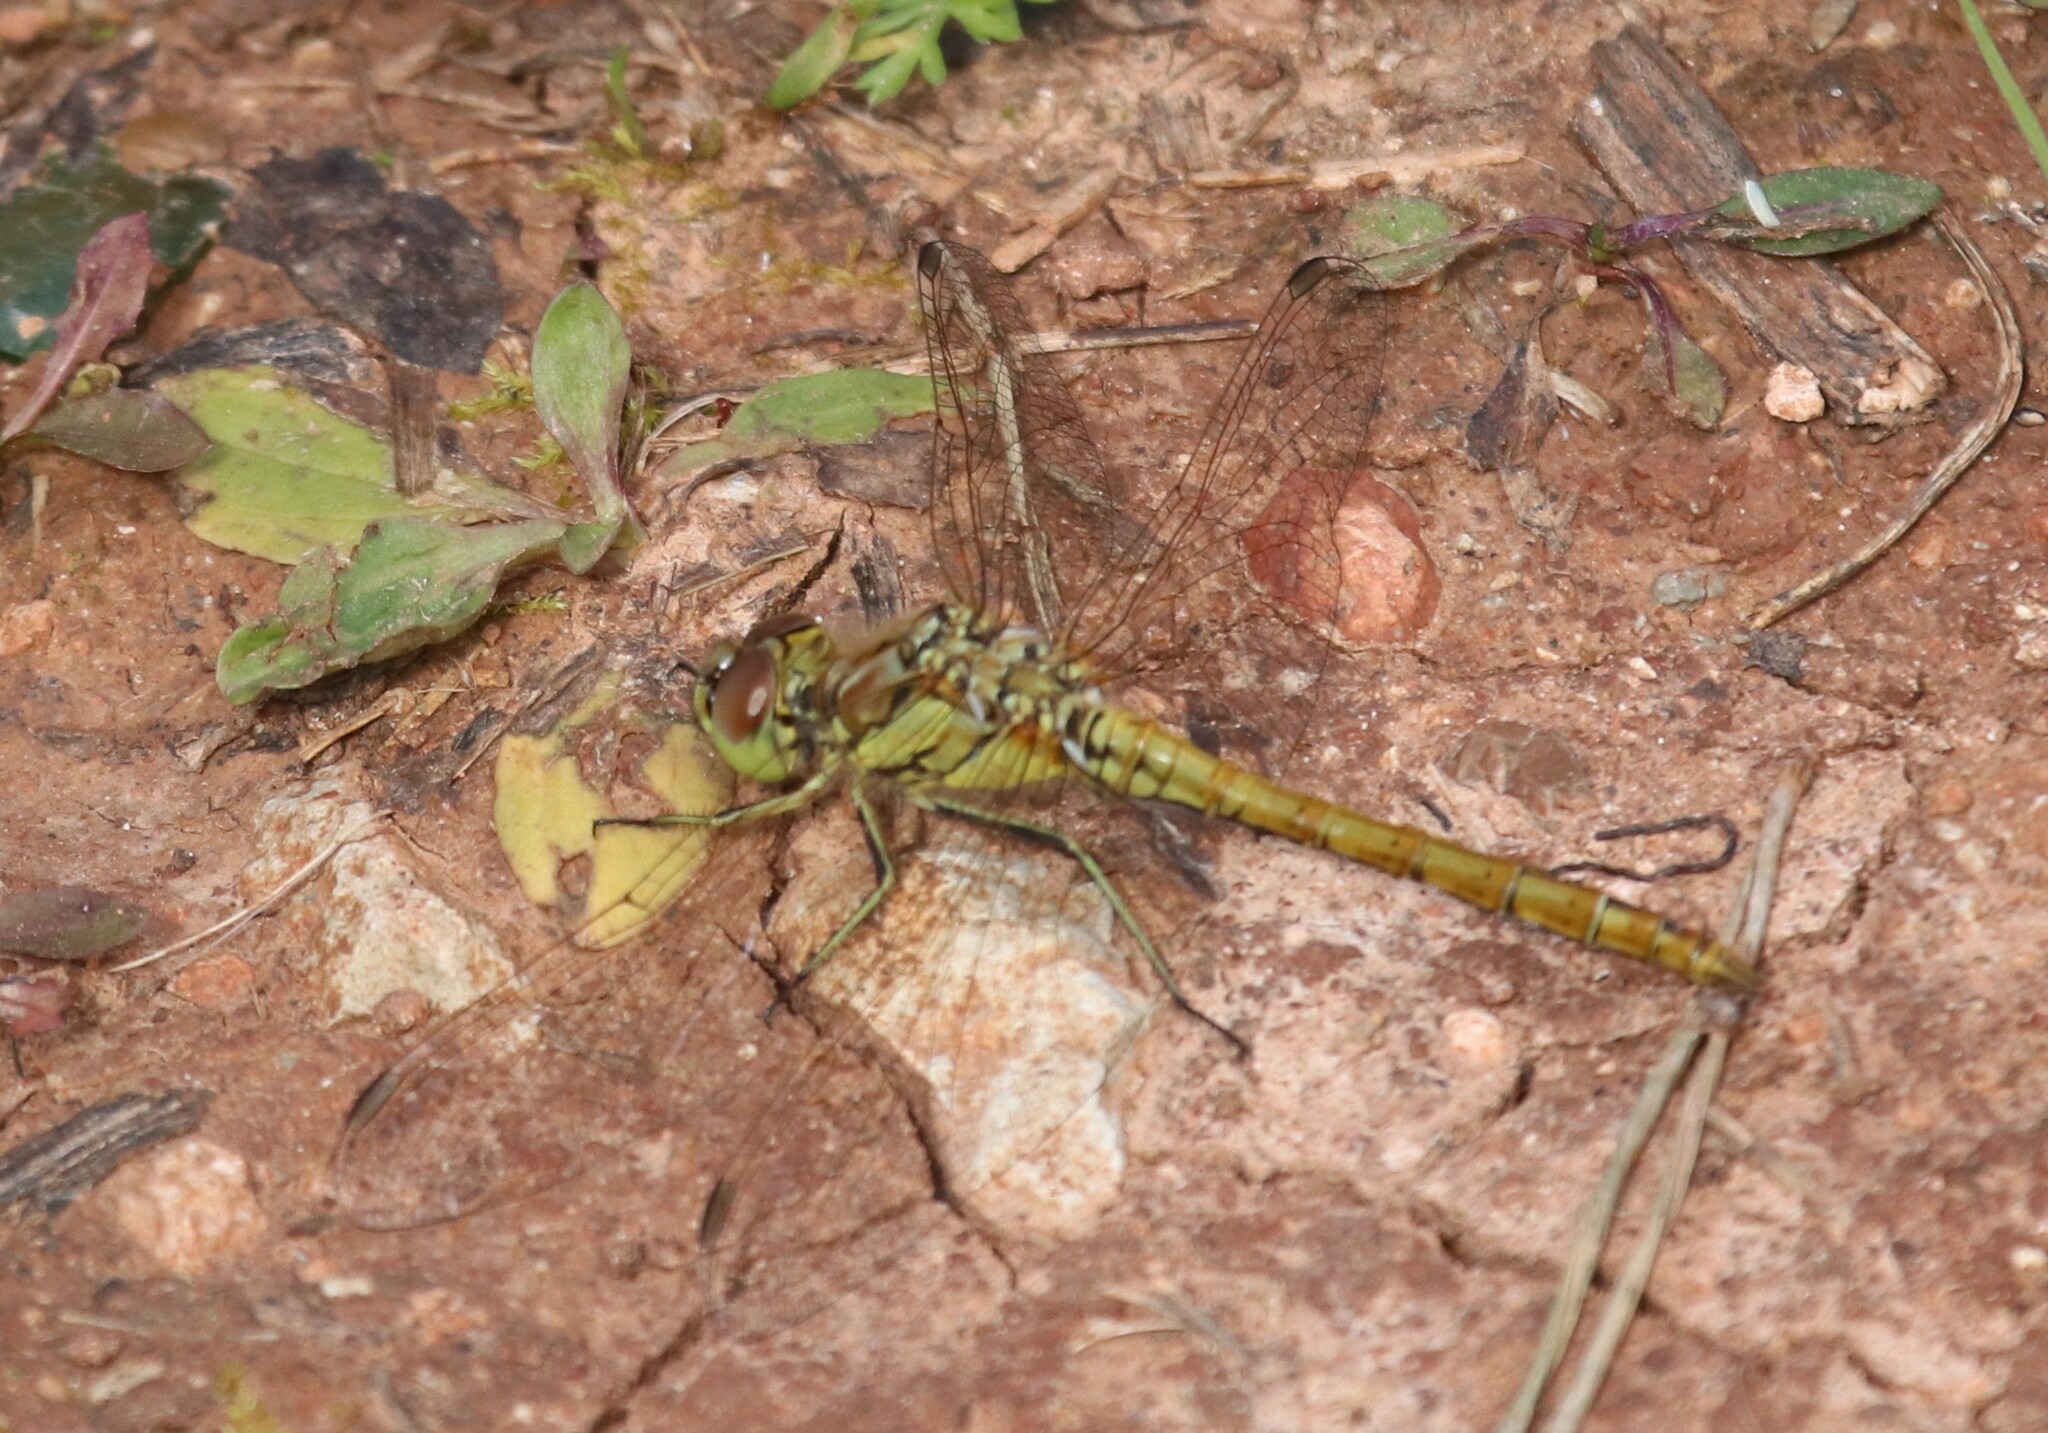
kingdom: Animalia
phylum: Arthropoda
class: Insecta
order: Odonata
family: Libellulidae
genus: Sympetrum
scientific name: Sympetrum vulgatum
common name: Vagrant darter
